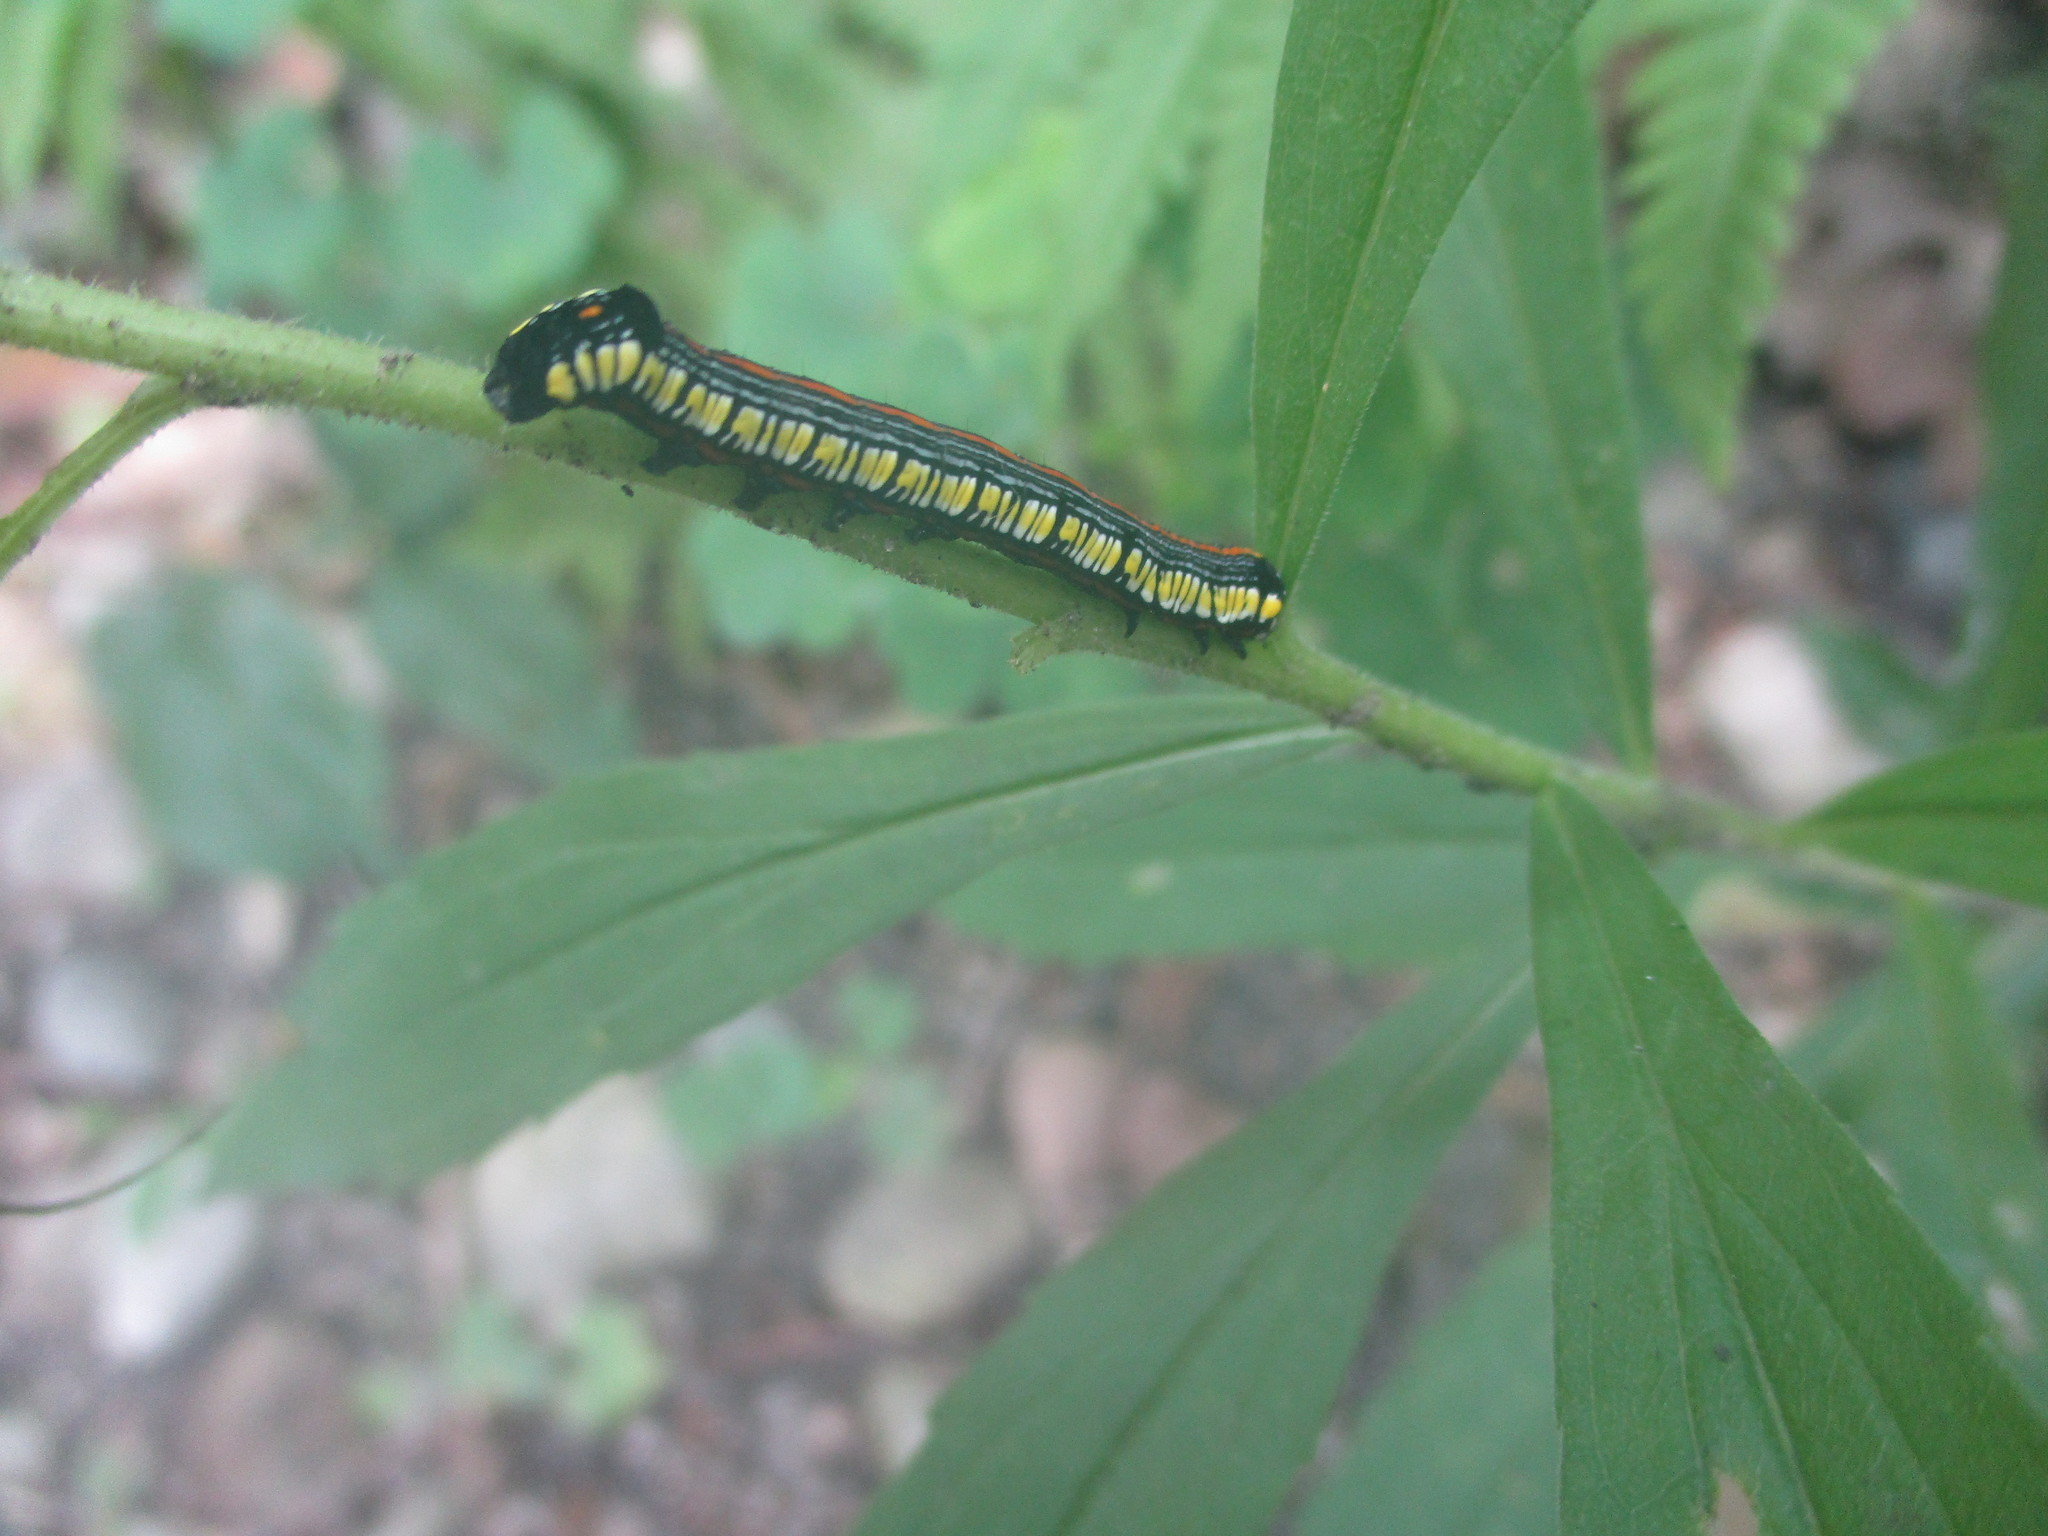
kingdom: Animalia
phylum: Arthropoda
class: Insecta
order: Lepidoptera
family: Noctuidae
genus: Cucullia
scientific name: Cucullia convexipennis
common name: Brown-hooded owlet
